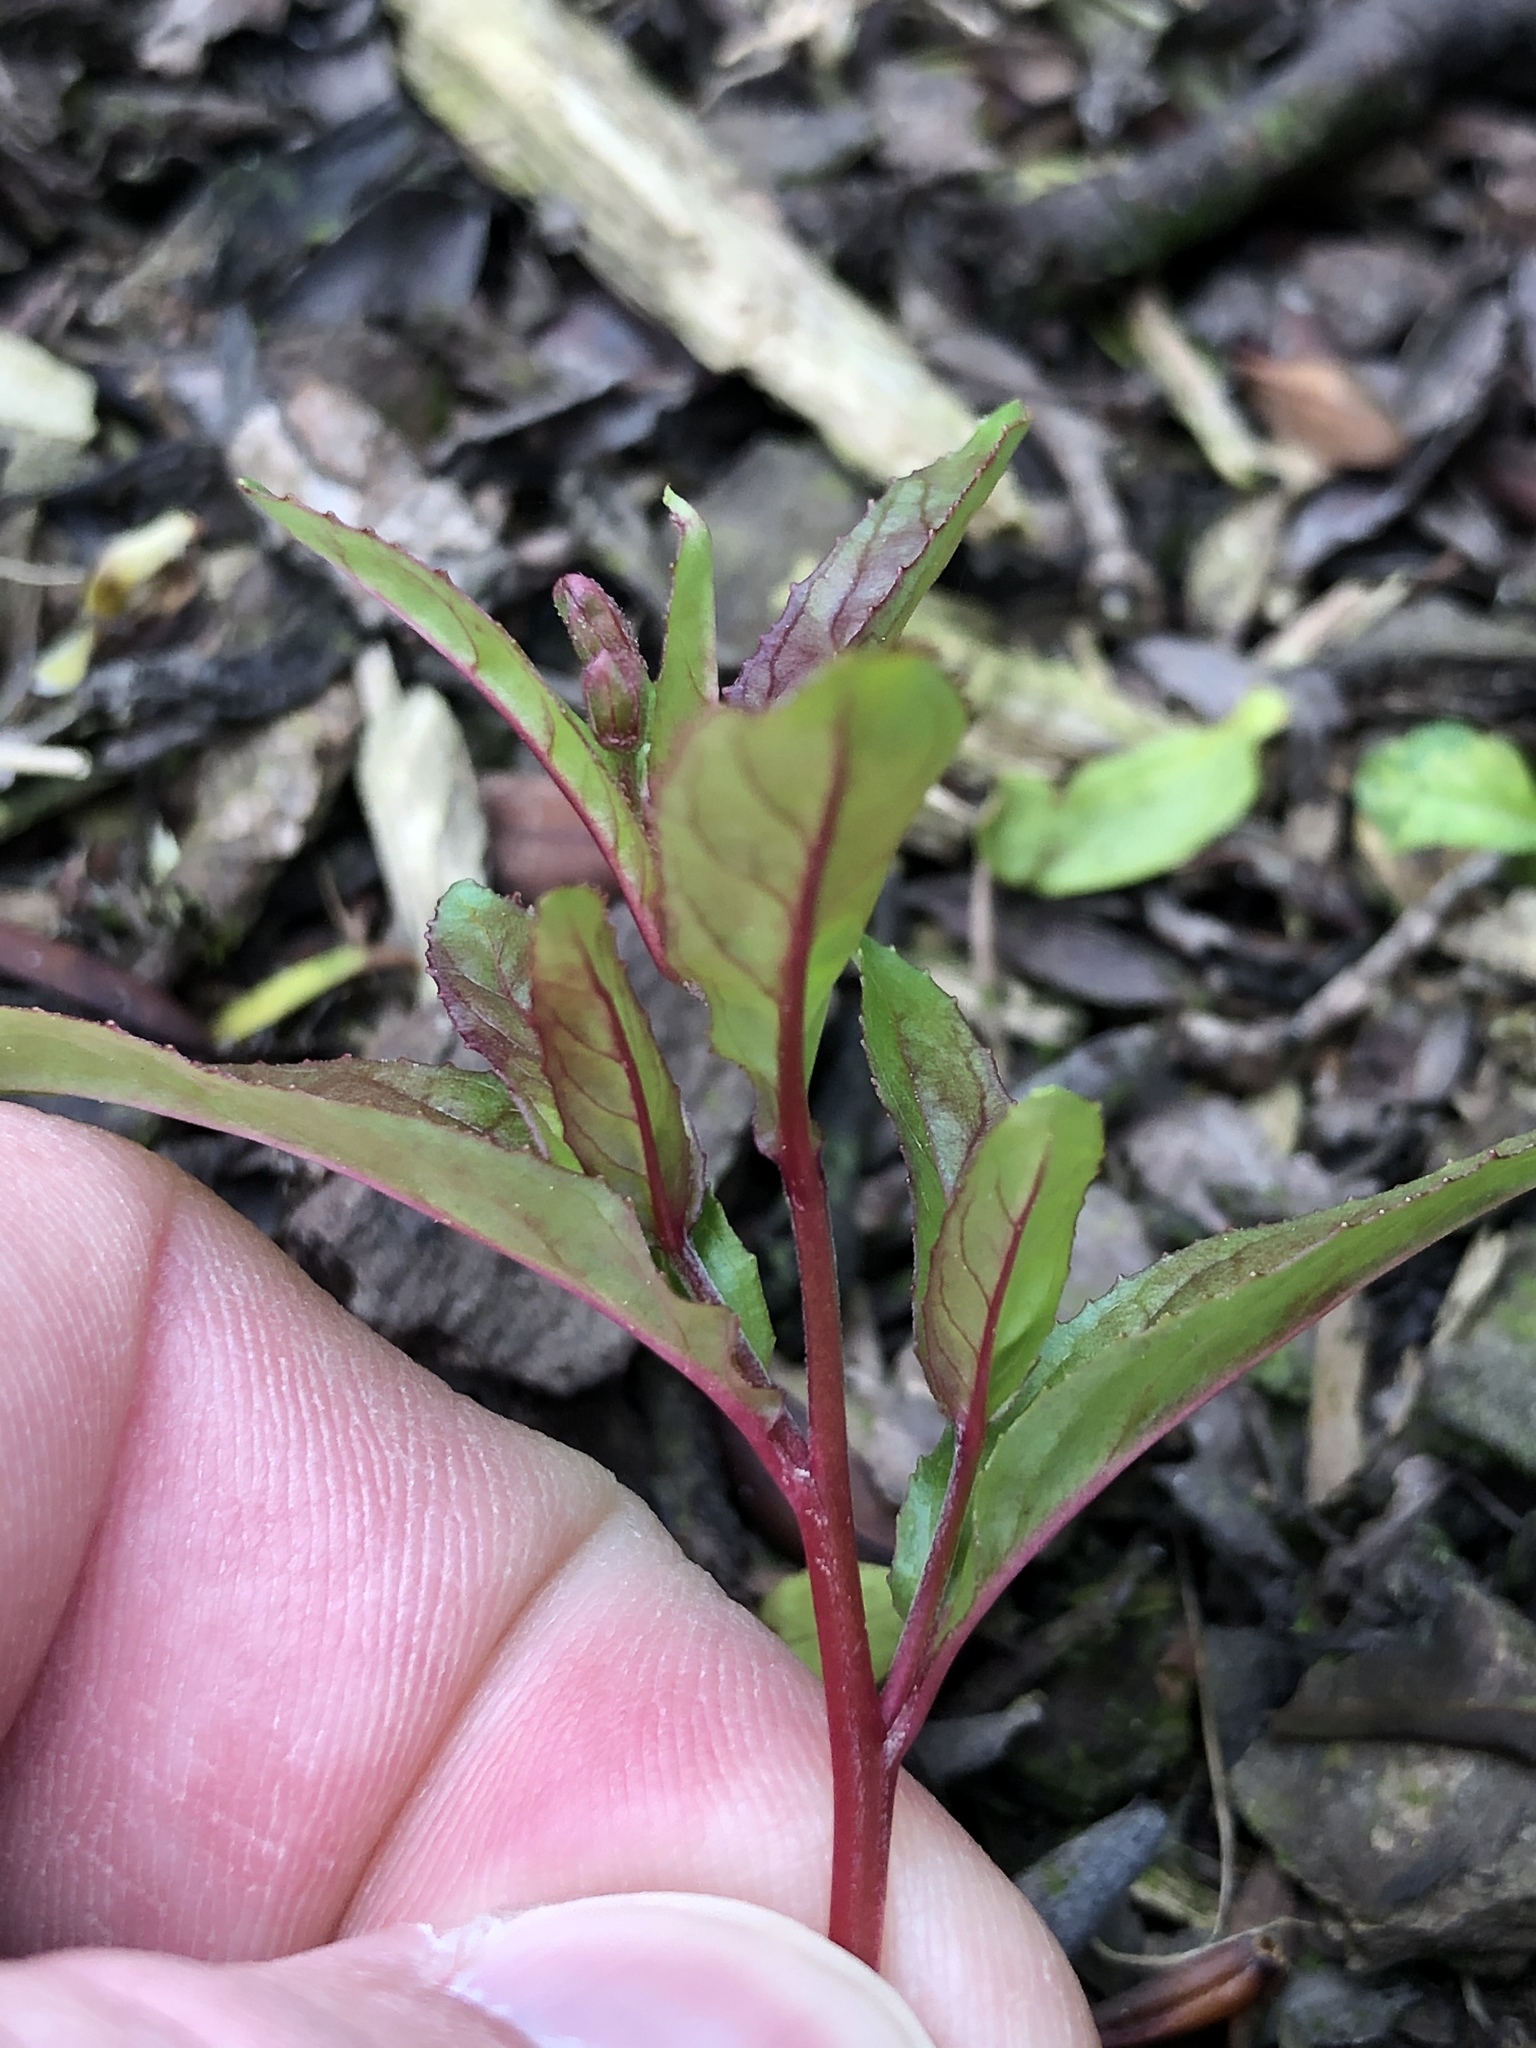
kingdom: Plantae
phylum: Tracheophyta
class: Magnoliopsida
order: Myrtales
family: Onagraceae
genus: Epilobium
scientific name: Epilobium ciliatum
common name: American willowherb
